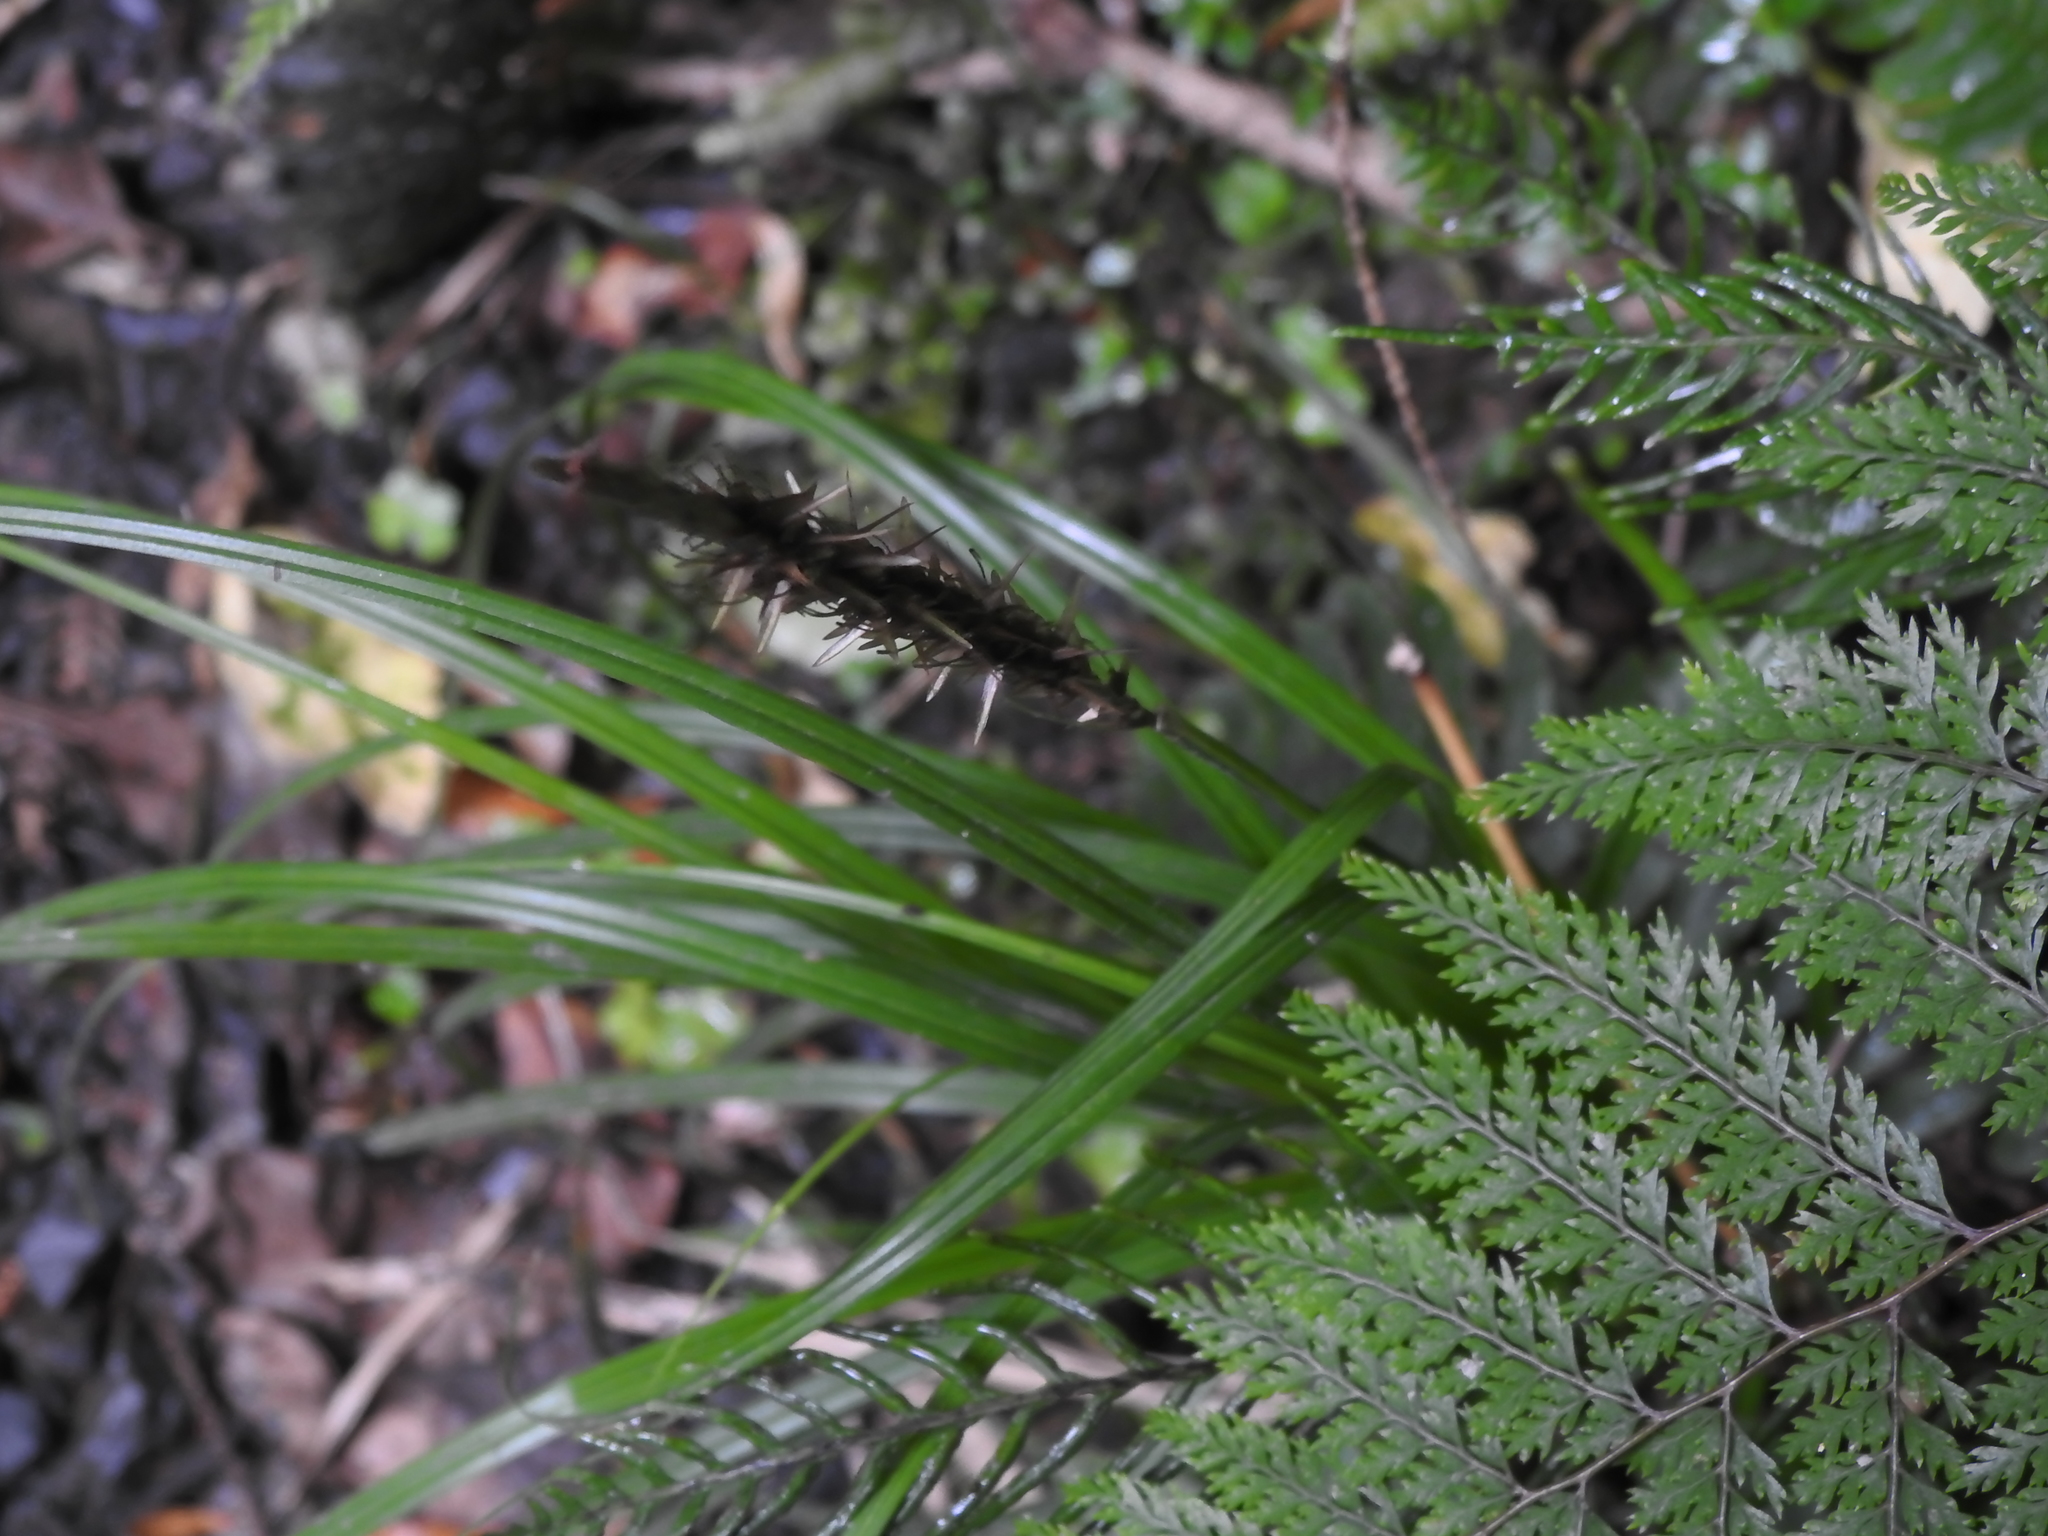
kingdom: Plantae
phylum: Tracheophyta
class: Liliopsida
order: Poales
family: Cyperaceae
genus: Carex
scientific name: Carex megalepis
